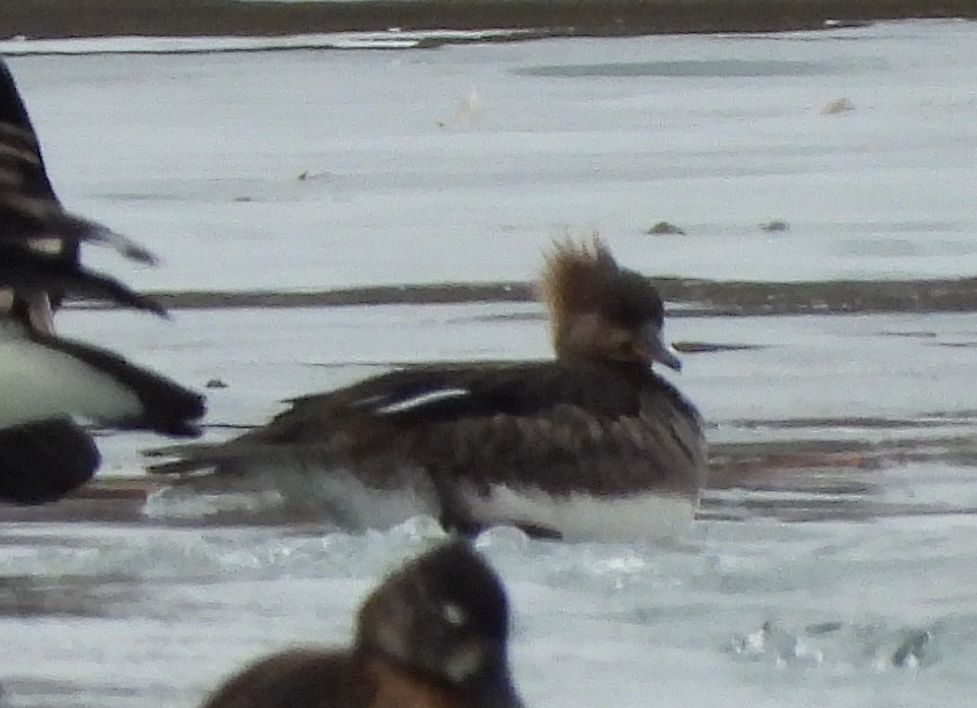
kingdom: Animalia
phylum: Chordata
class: Aves
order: Anseriformes
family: Anatidae
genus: Lophodytes
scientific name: Lophodytes cucullatus
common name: Hooded merganser
